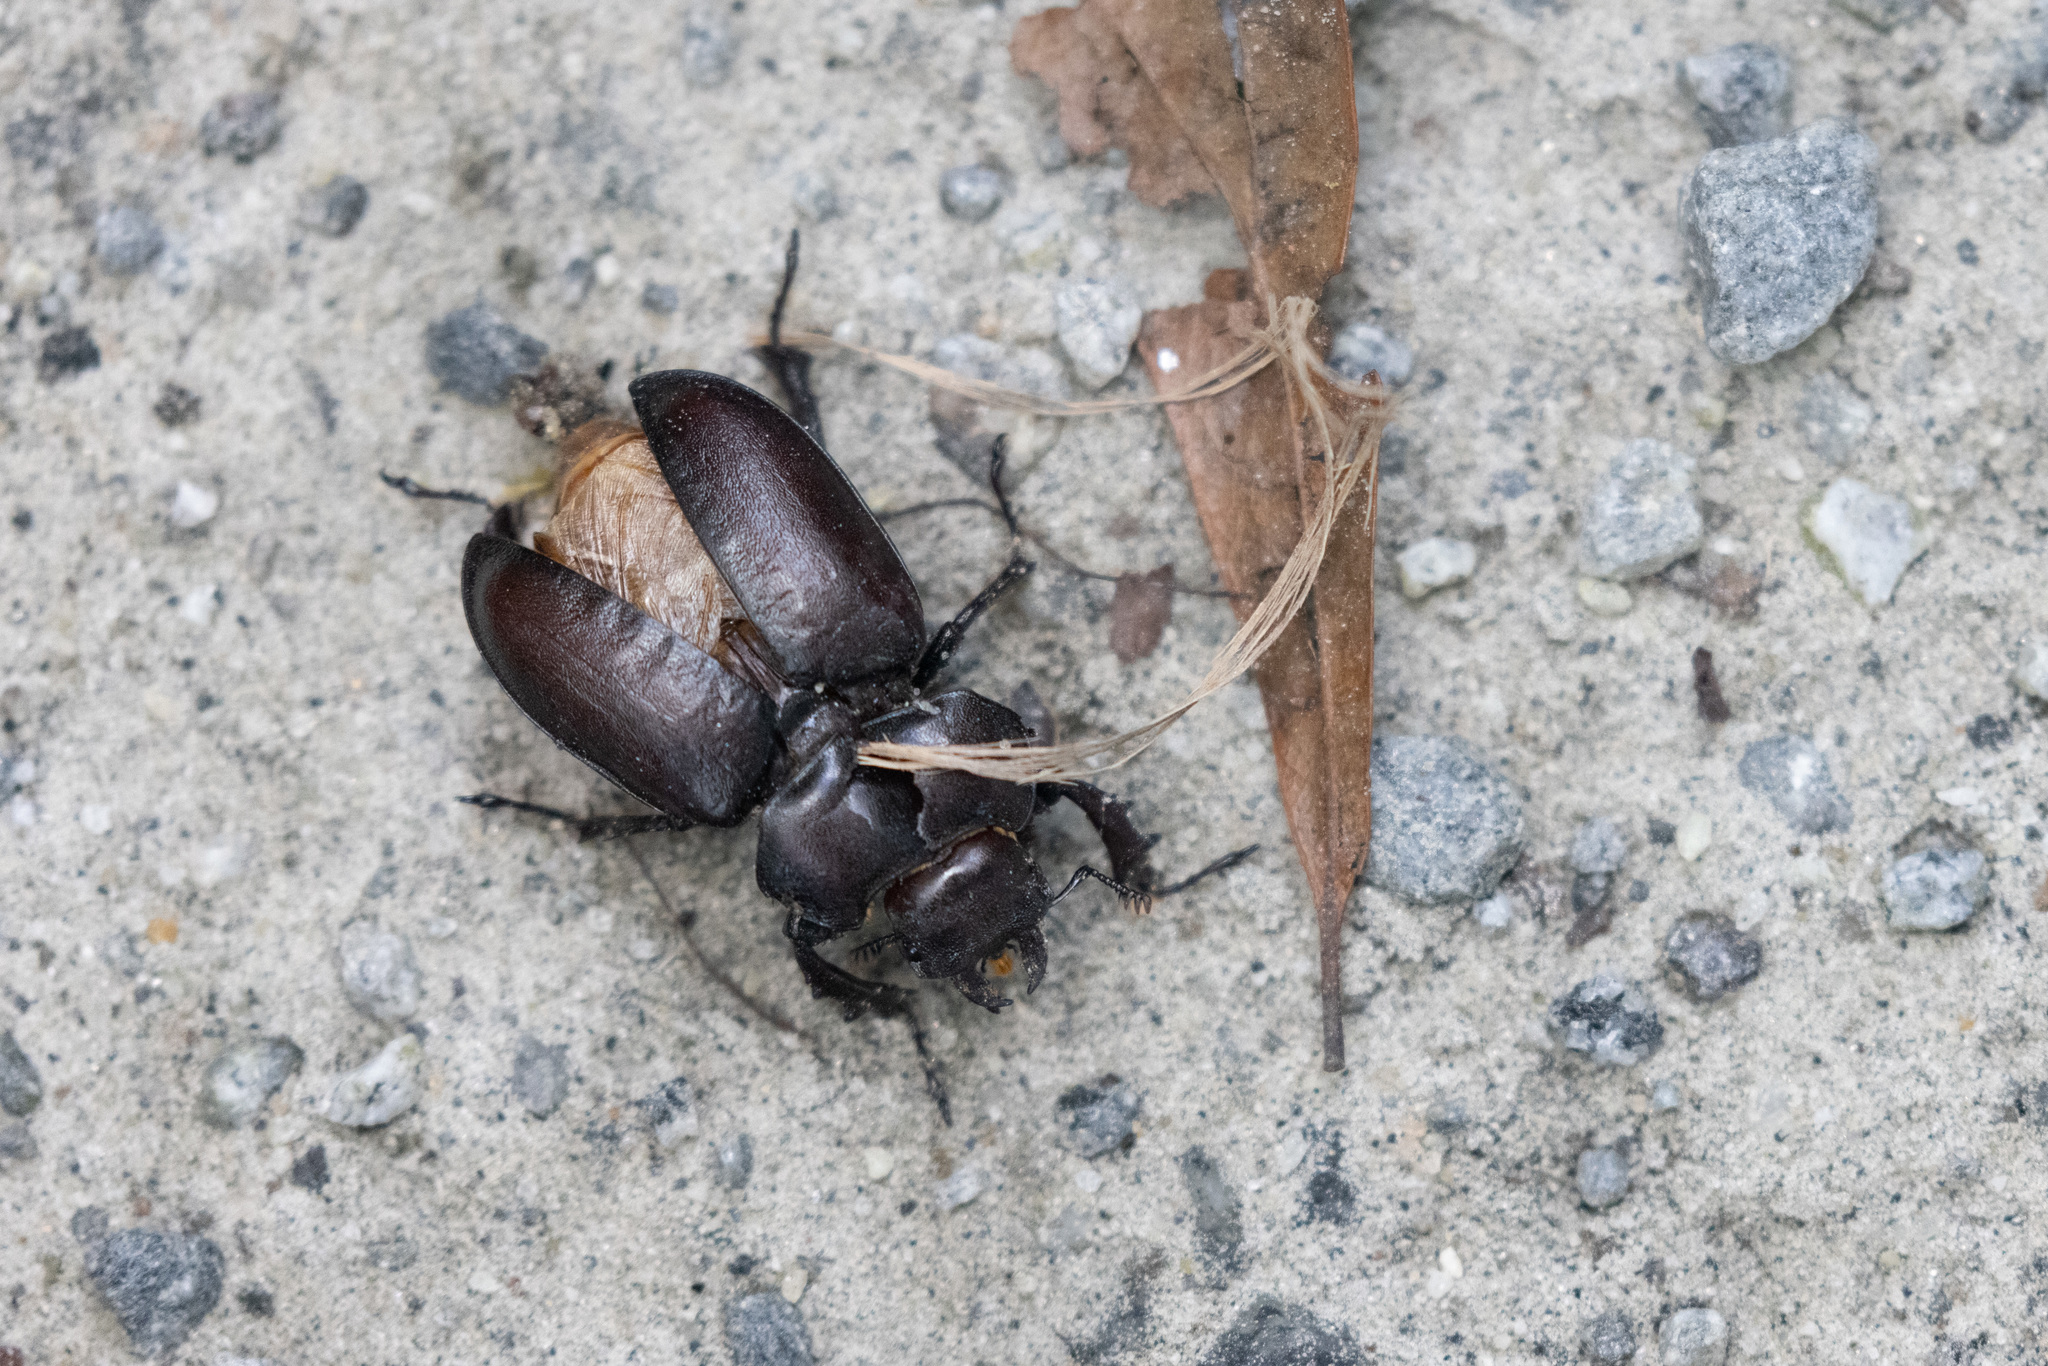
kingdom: Animalia
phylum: Arthropoda
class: Insecta
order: Coleoptera
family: Lucanidae
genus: Lucanus
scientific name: Lucanus placidus
